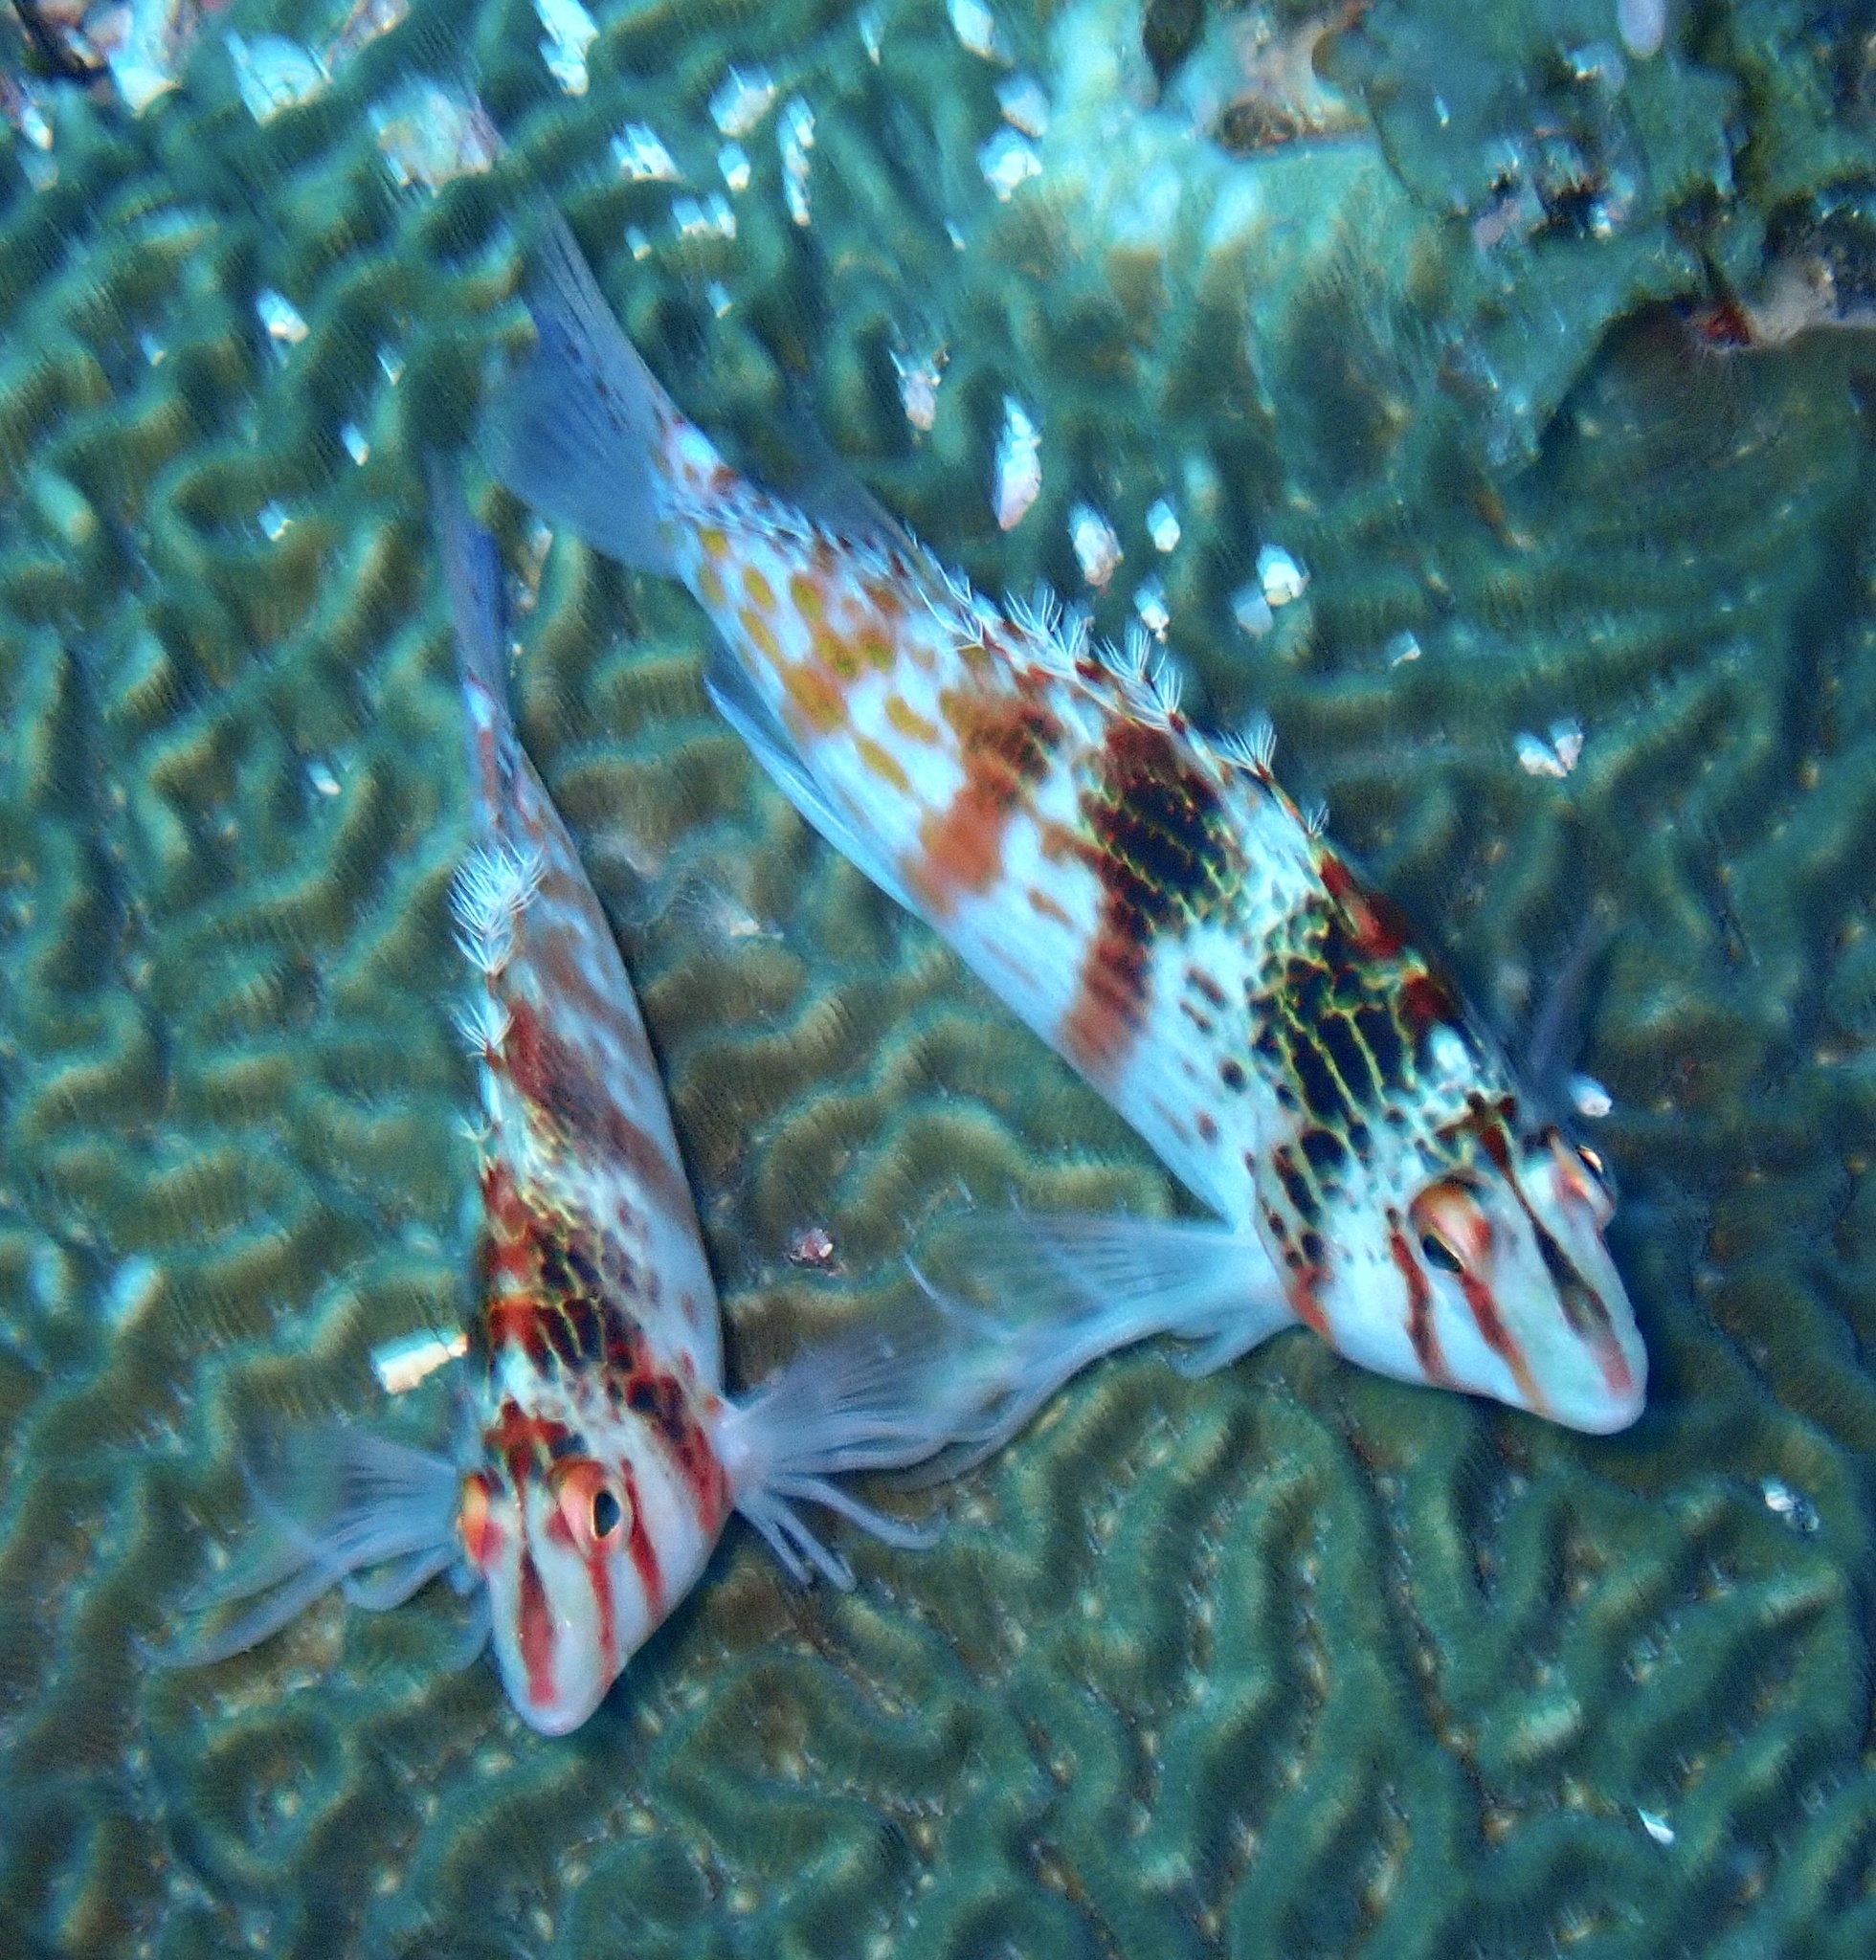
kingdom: Animalia
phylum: Chordata
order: Perciformes
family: Cirrhitidae
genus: Cirrhitichthys
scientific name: Cirrhitichthys falco
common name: Coral hawkfish
